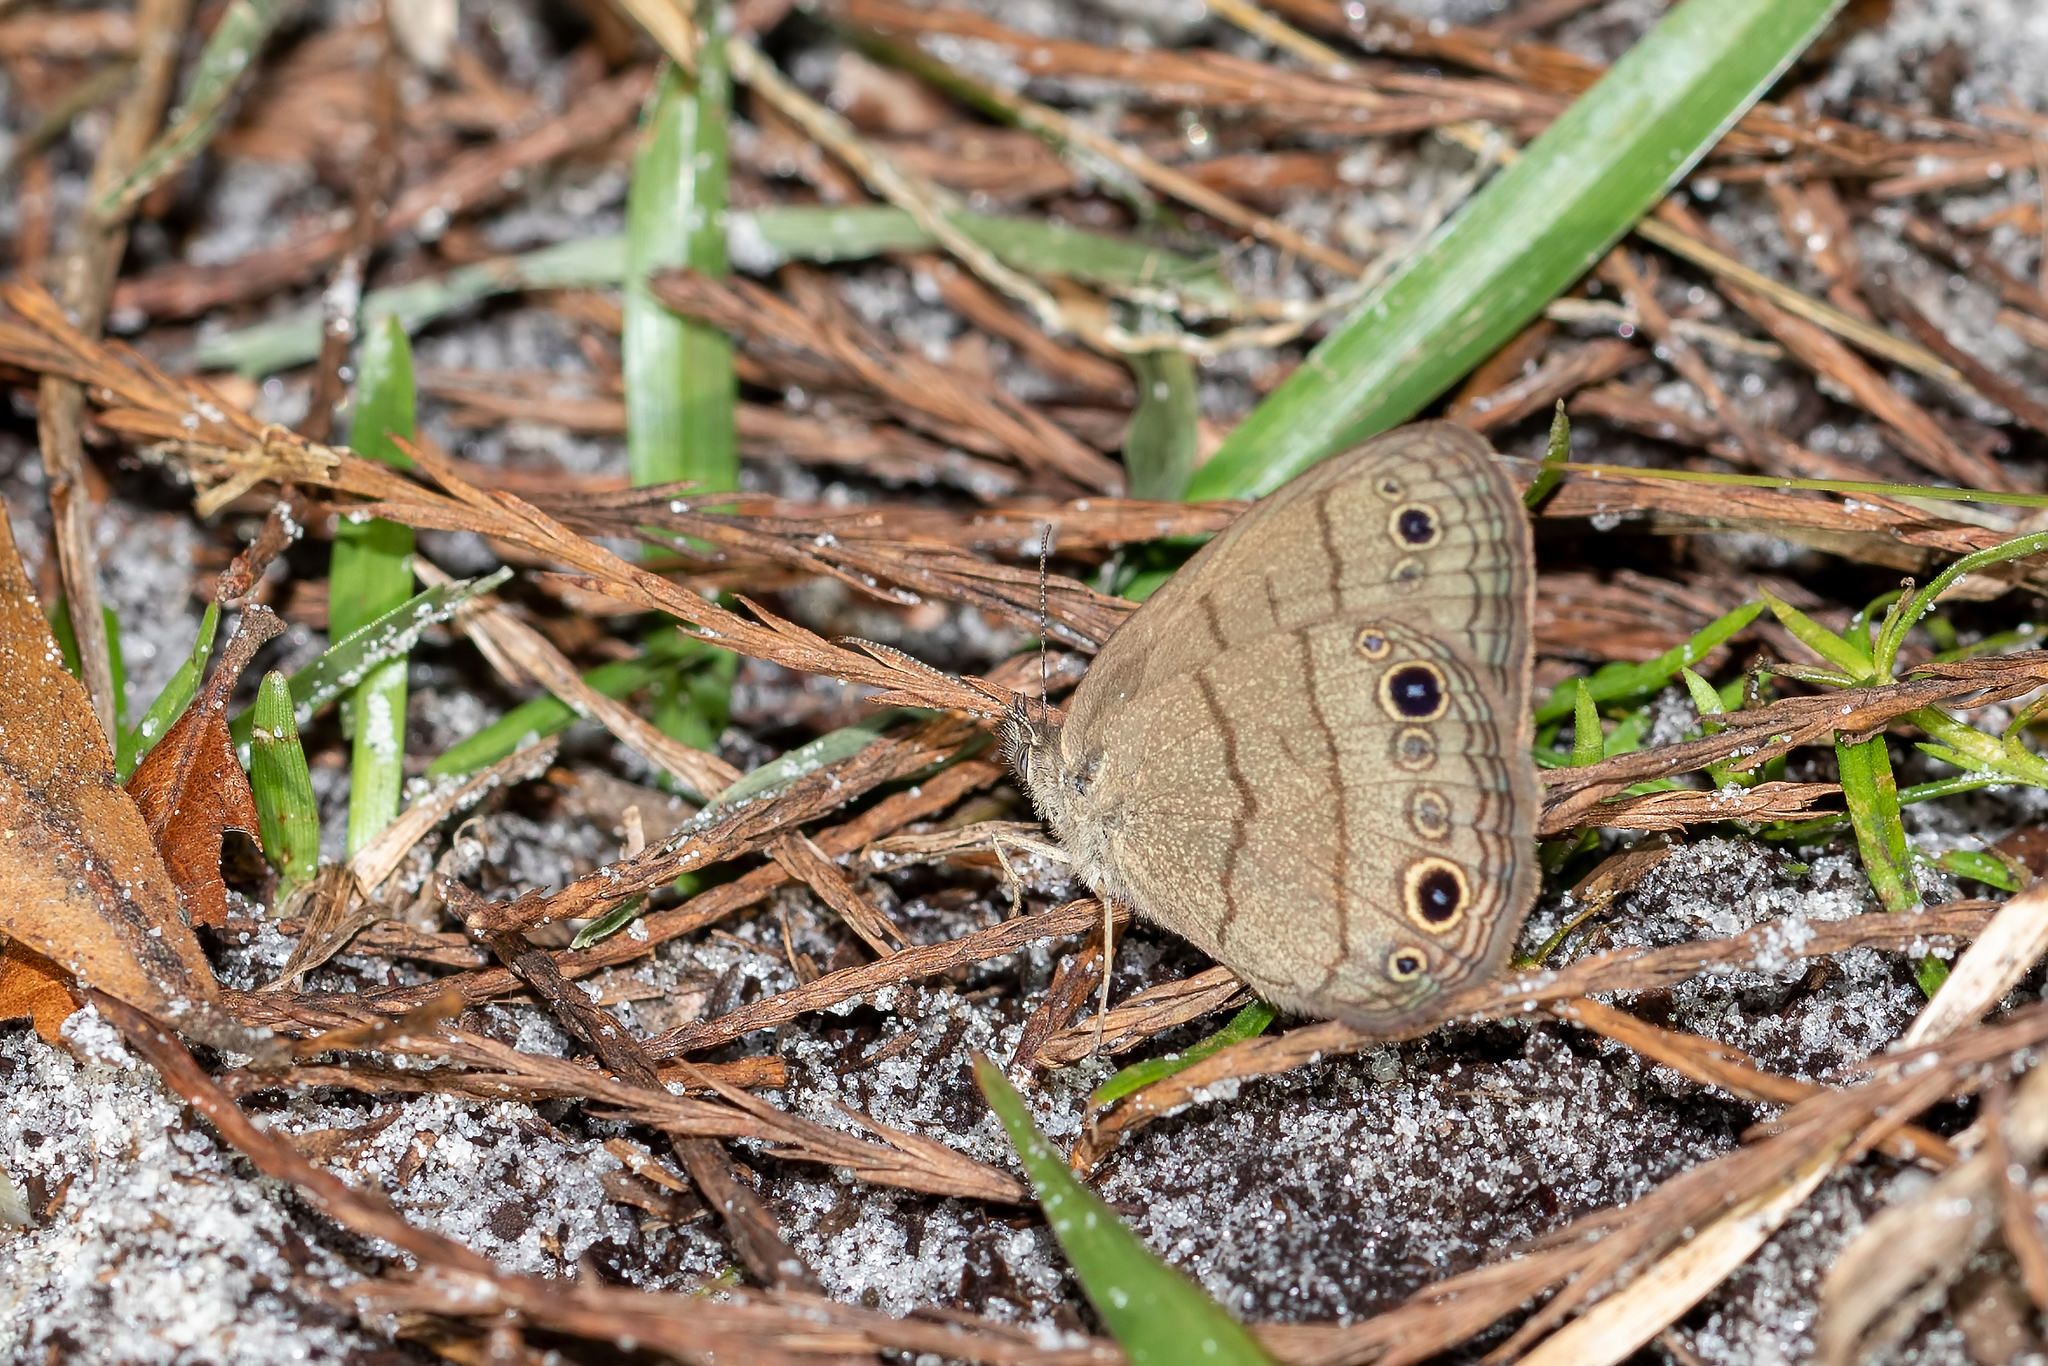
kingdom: Animalia
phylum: Arthropoda
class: Insecta
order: Lepidoptera
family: Nymphalidae
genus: Hermeuptychia
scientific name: Hermeuptychia hermes
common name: Hermes satyr
